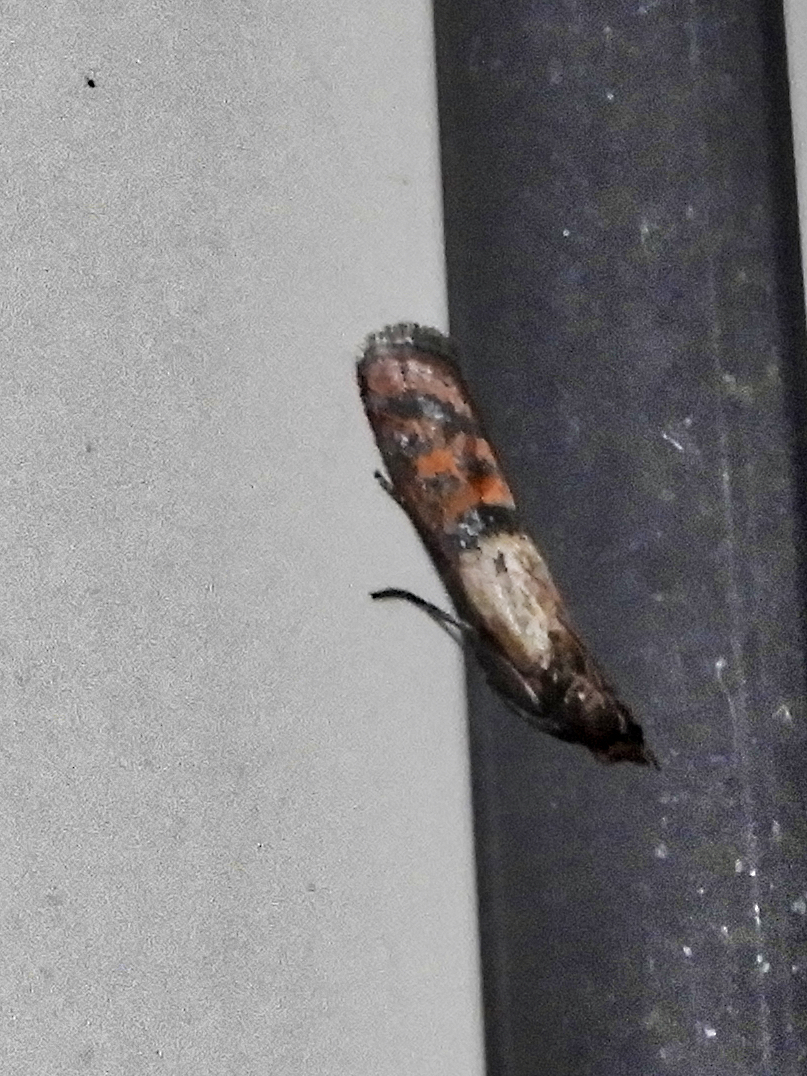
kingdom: Animalia
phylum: Arthropoda
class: Insecta
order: Lepidoptera
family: Pyralidae
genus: Plodia
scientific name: Plodia interpunctella
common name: Indian meal moth
